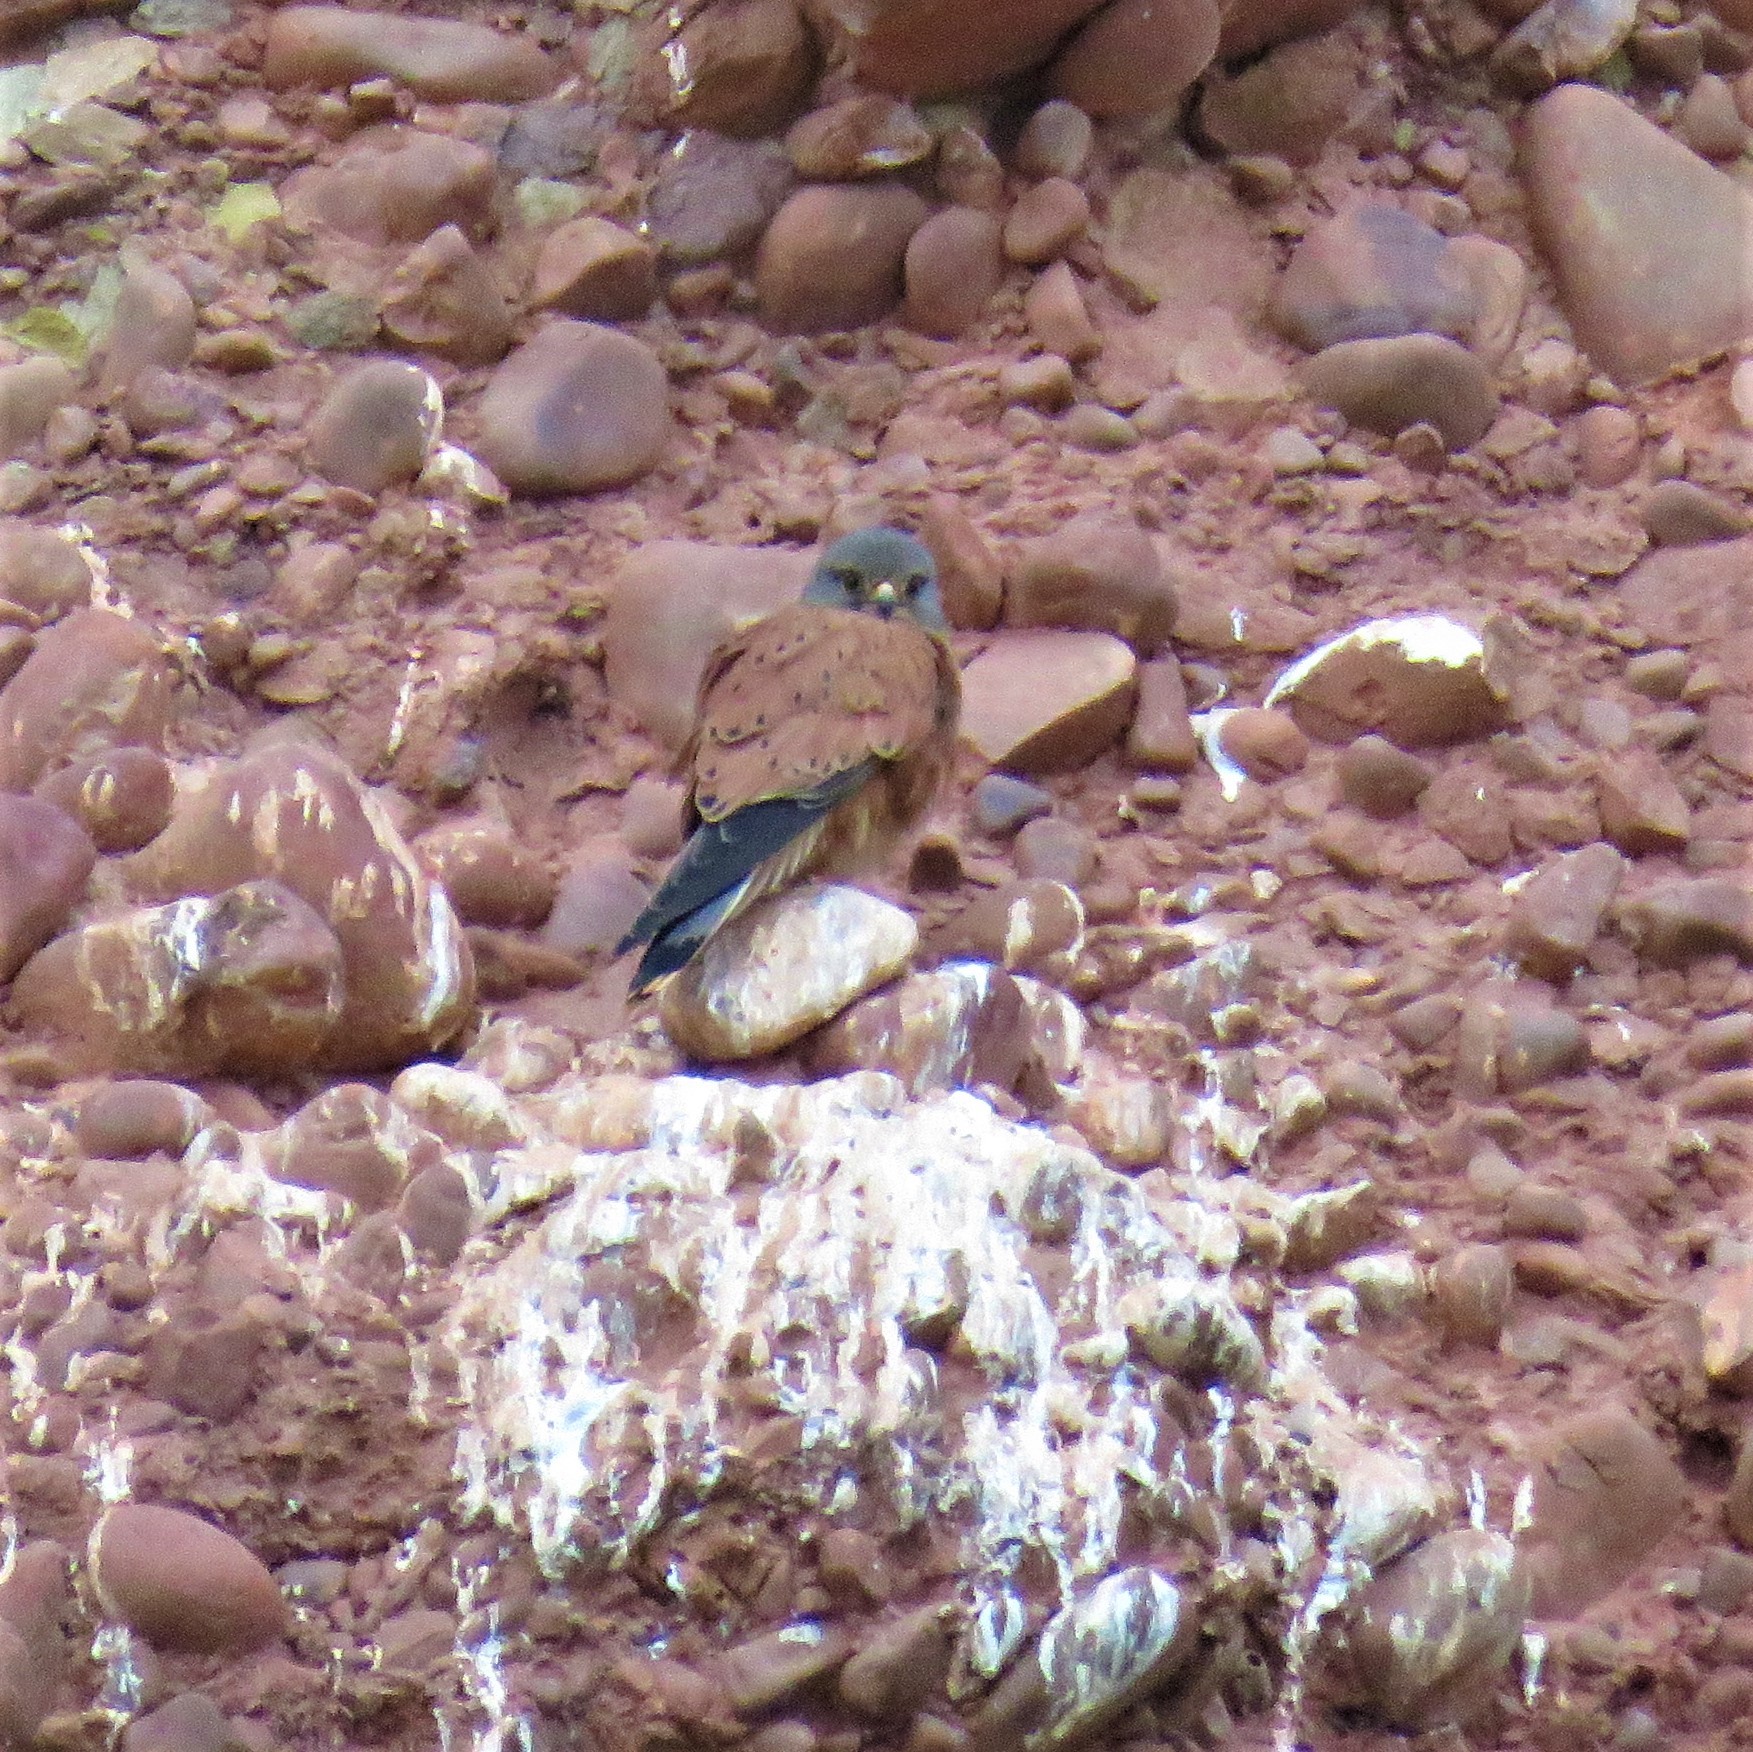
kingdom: Animalia
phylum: Chordata
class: Aves
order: Falconiformes
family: Falconidae
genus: Falco
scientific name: Falco rupicolus
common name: Rock kestrel
